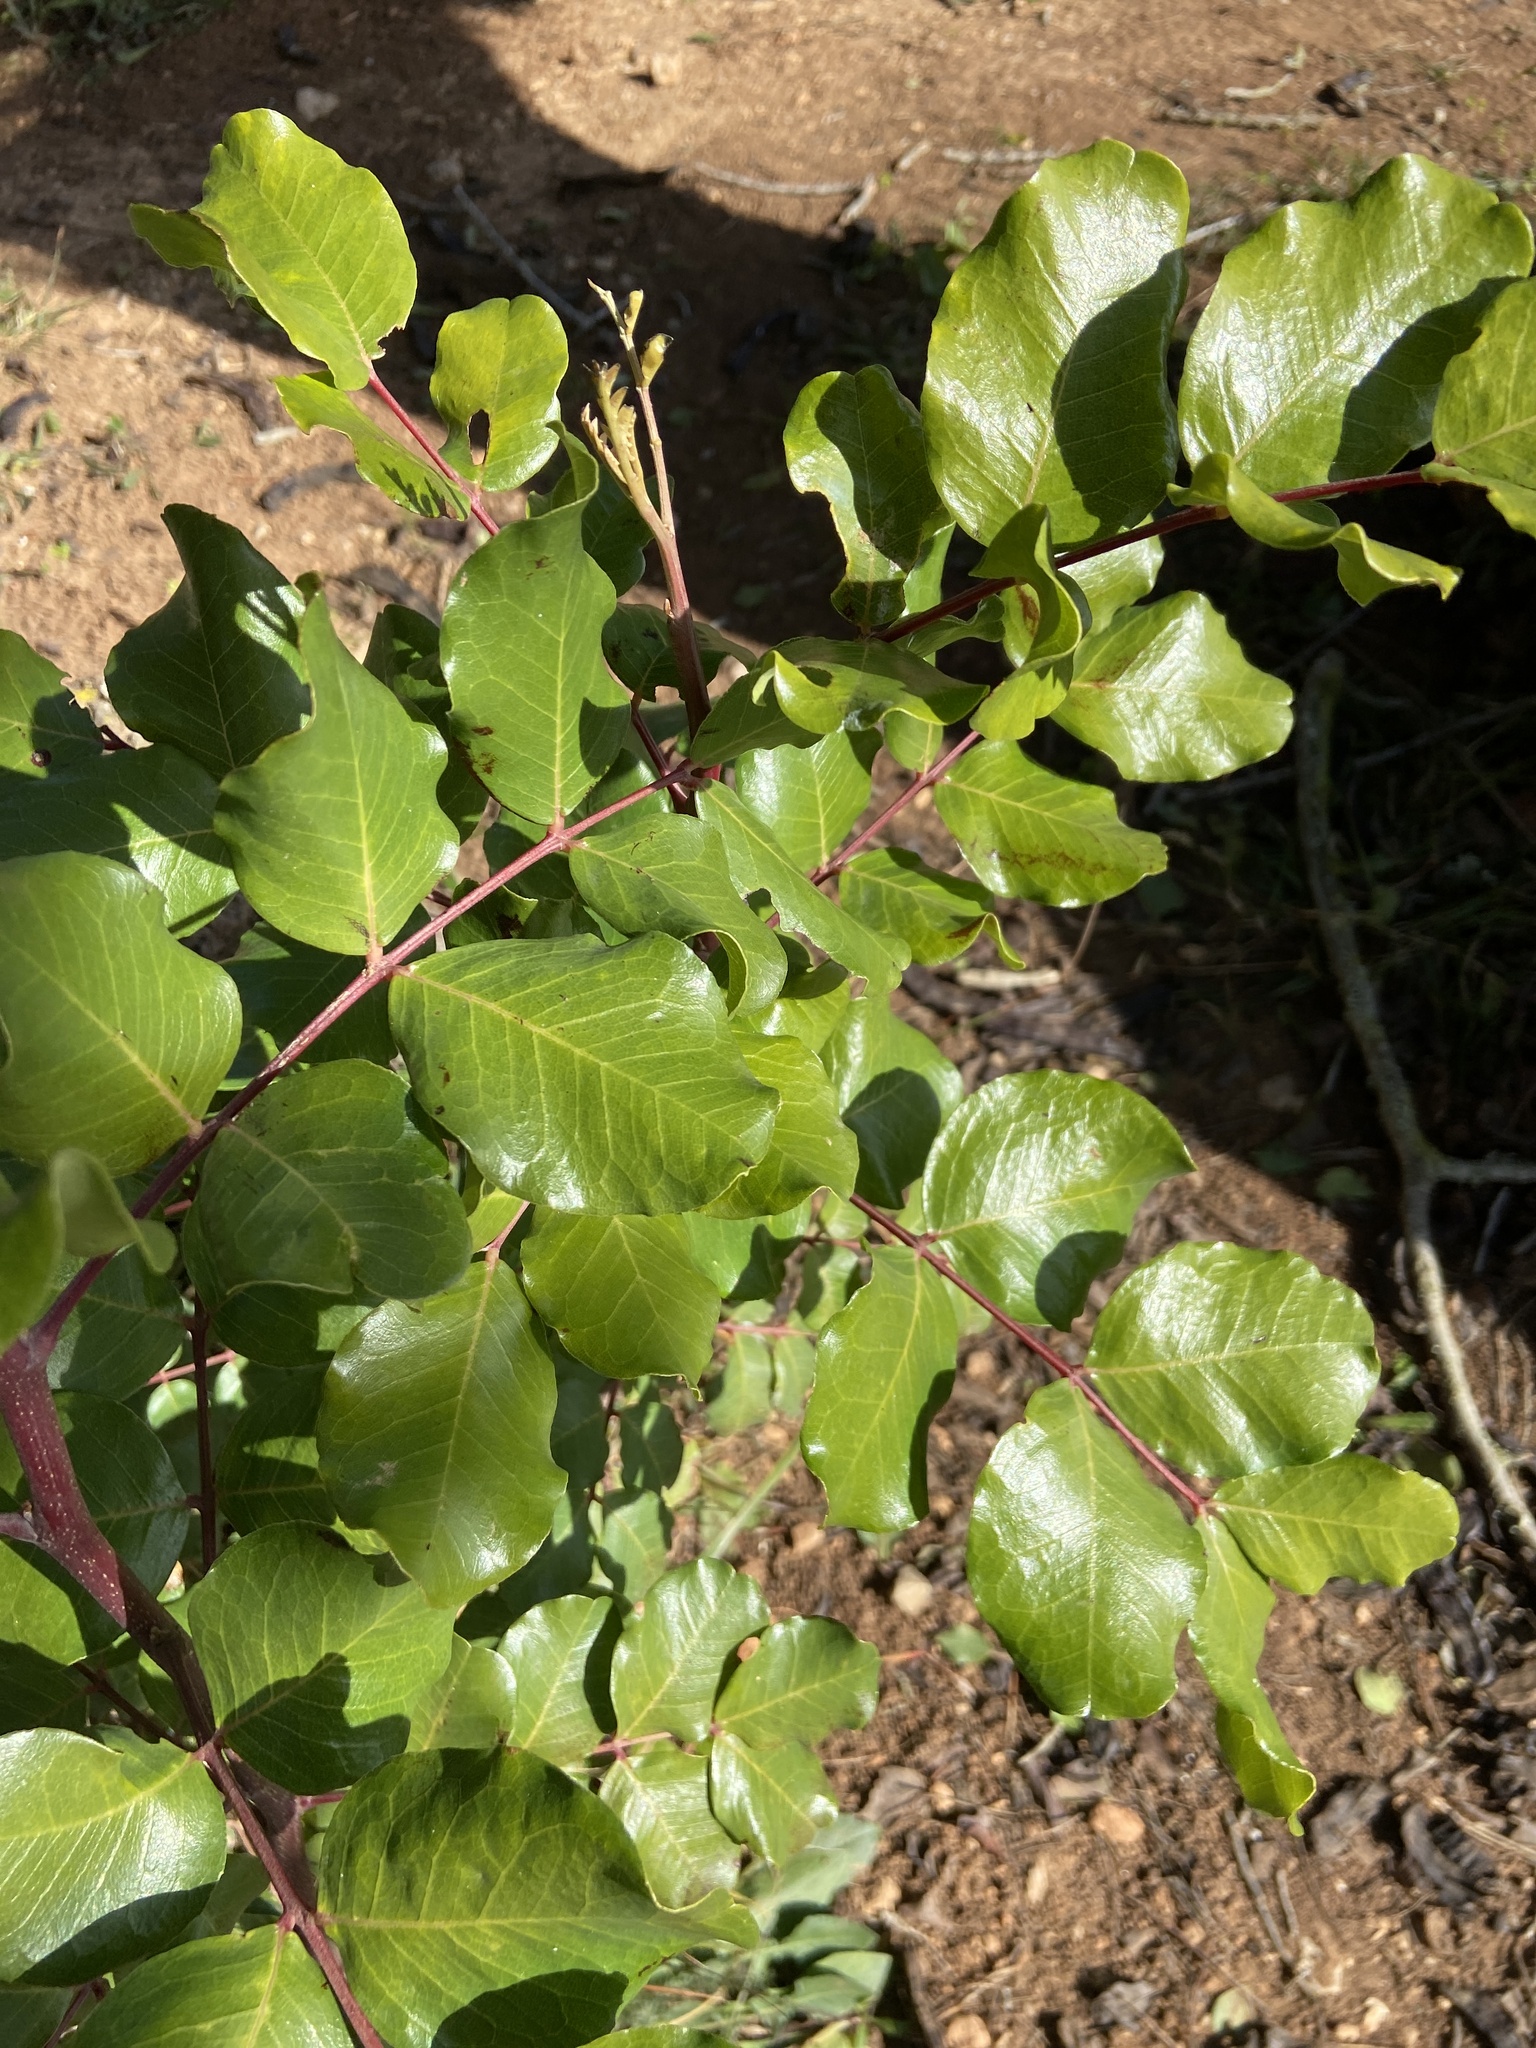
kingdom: Plantae
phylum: Tracheophyta
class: Magnoliopsida
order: Fabales
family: Fabaceae
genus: Ceratonia
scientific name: Ceratonia siliqua
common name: Carob
